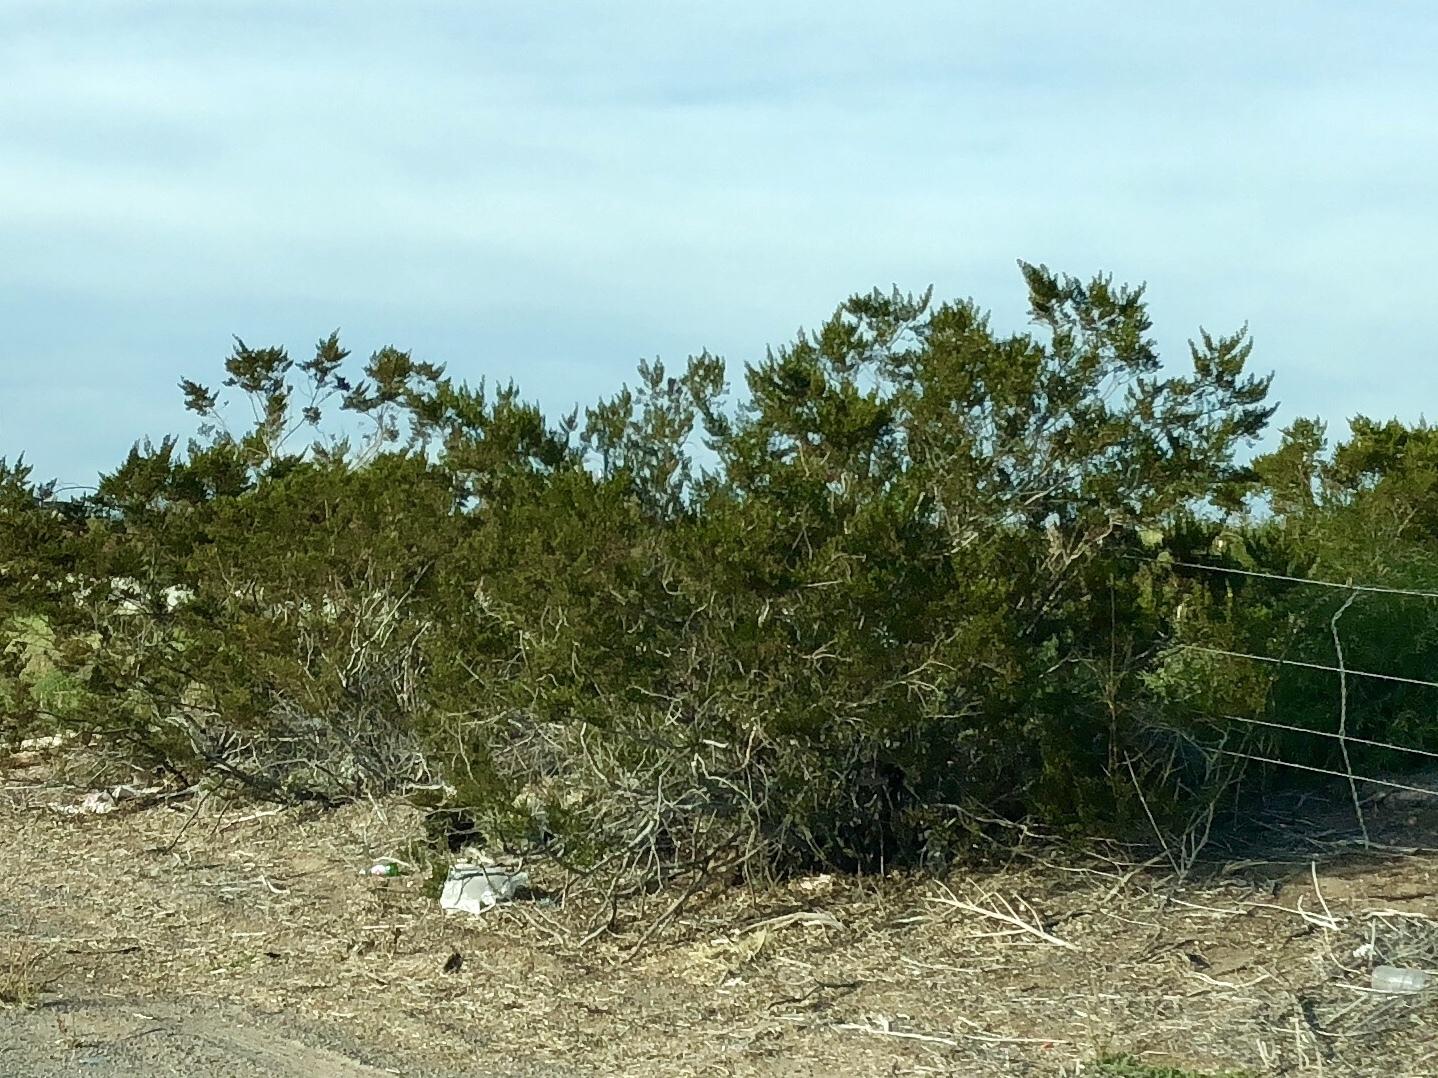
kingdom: Plantae
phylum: Tracheophyta
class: Magnoliopsida
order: Zygophyllales
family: Zygophyllaceae
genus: Larrea
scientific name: Larrea tridentata
